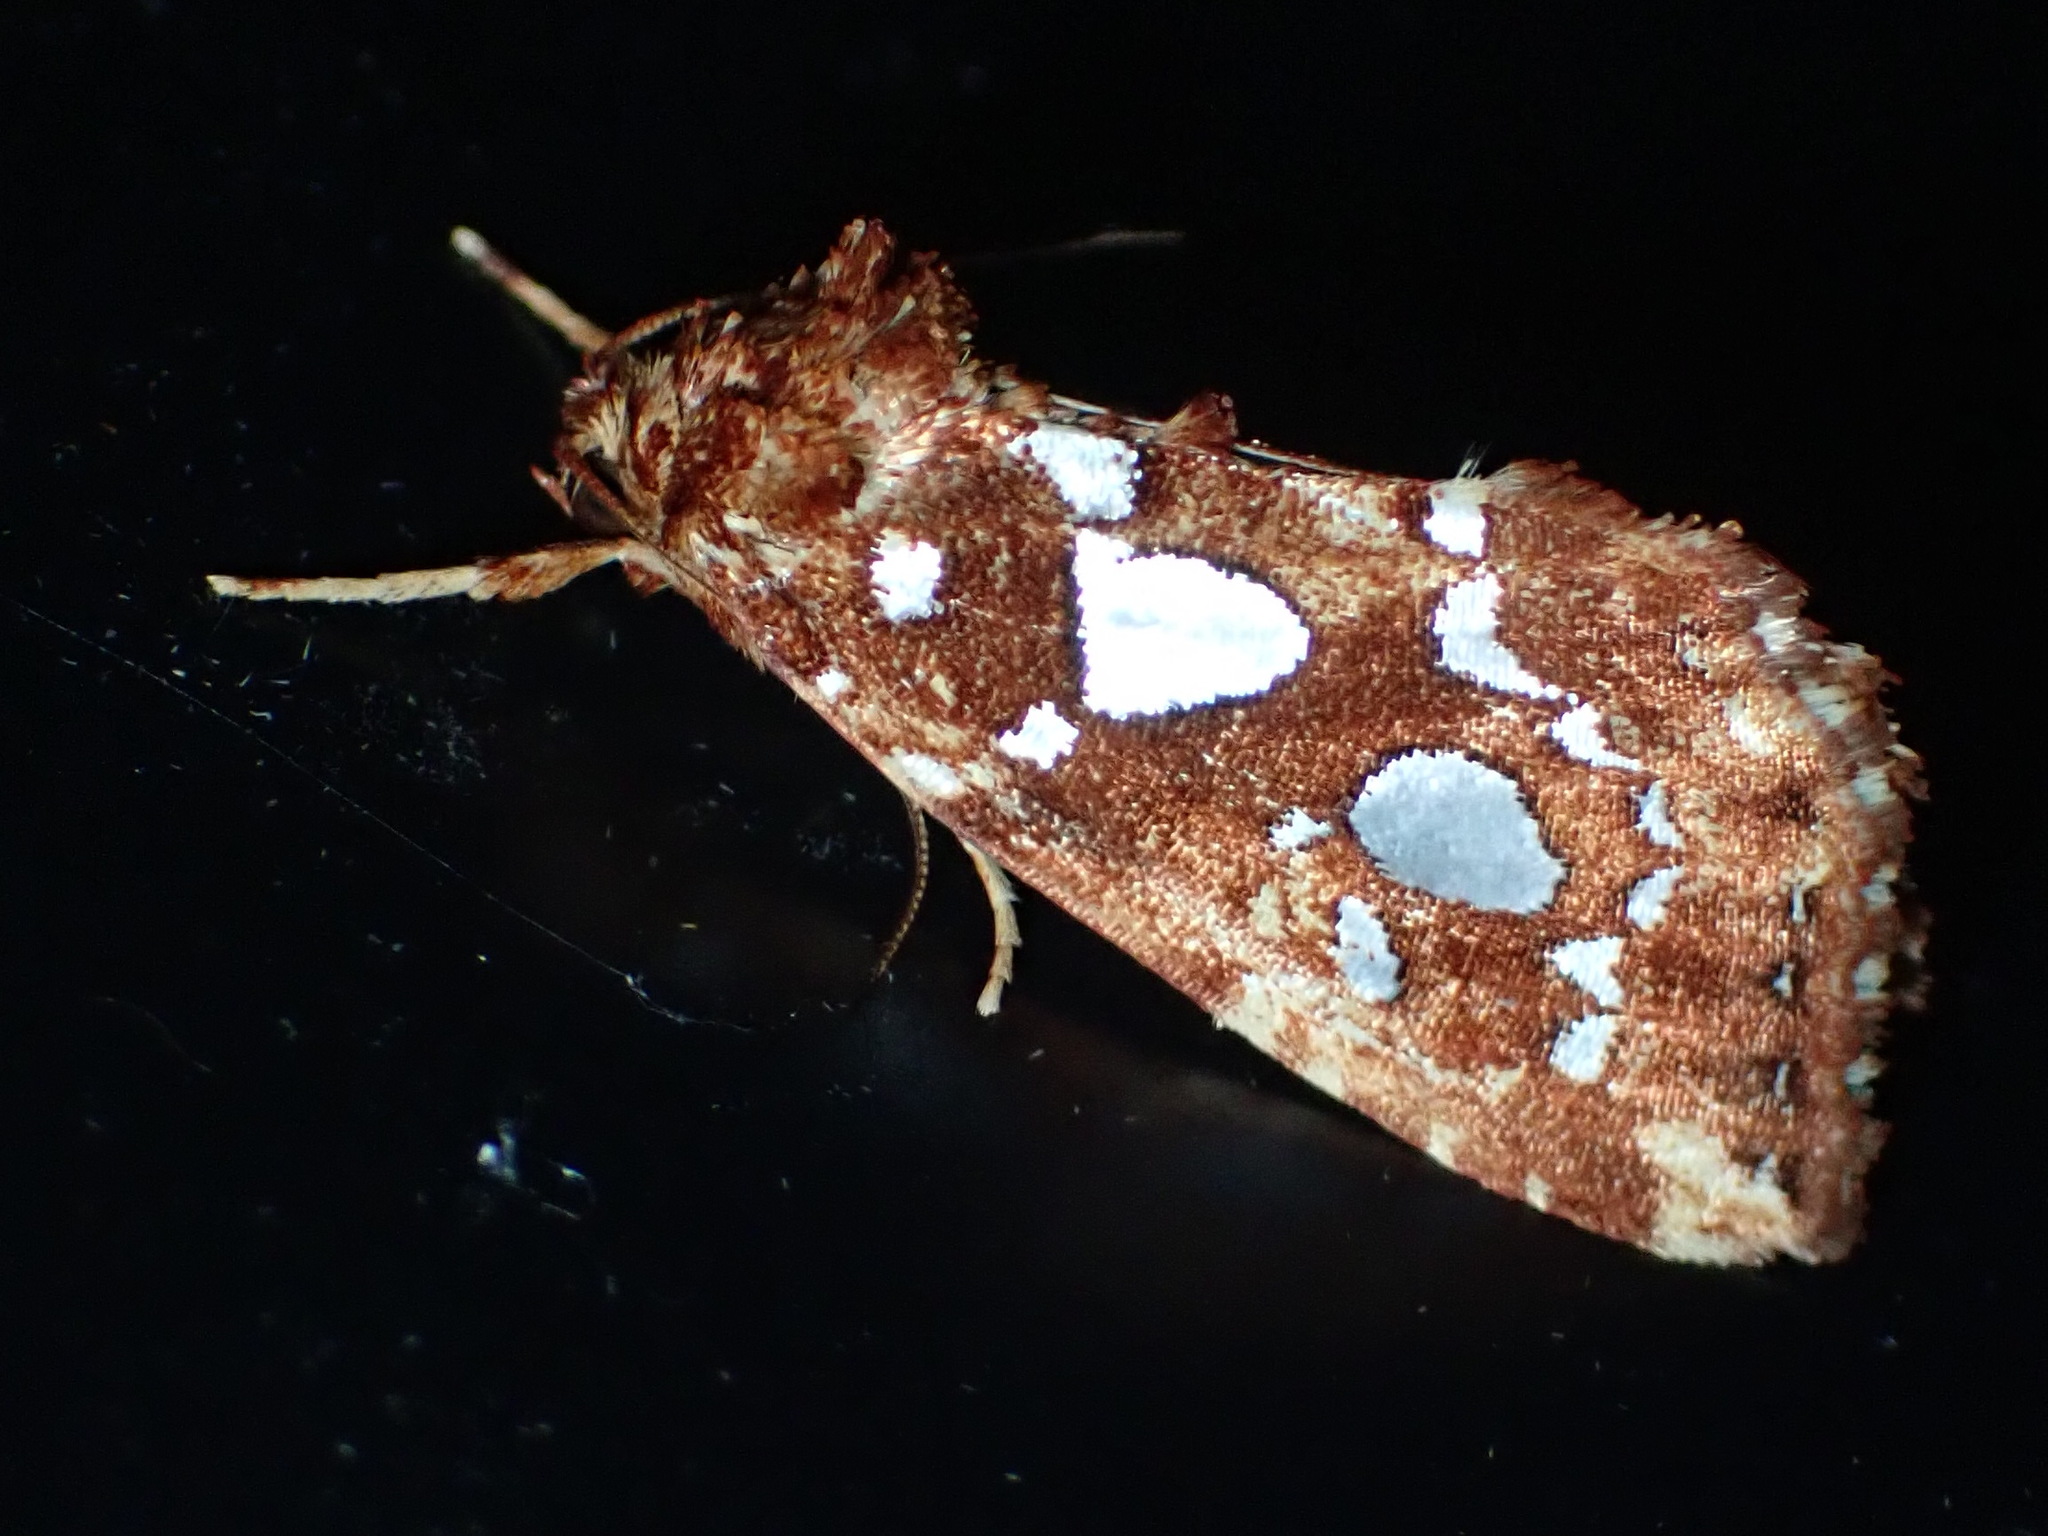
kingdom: Animalia
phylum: Arthropoda
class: Insecta
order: Lepidoptera
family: Noctuidae
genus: Callopistria
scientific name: Callopistria cordata
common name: Silver-spotted fern moth
